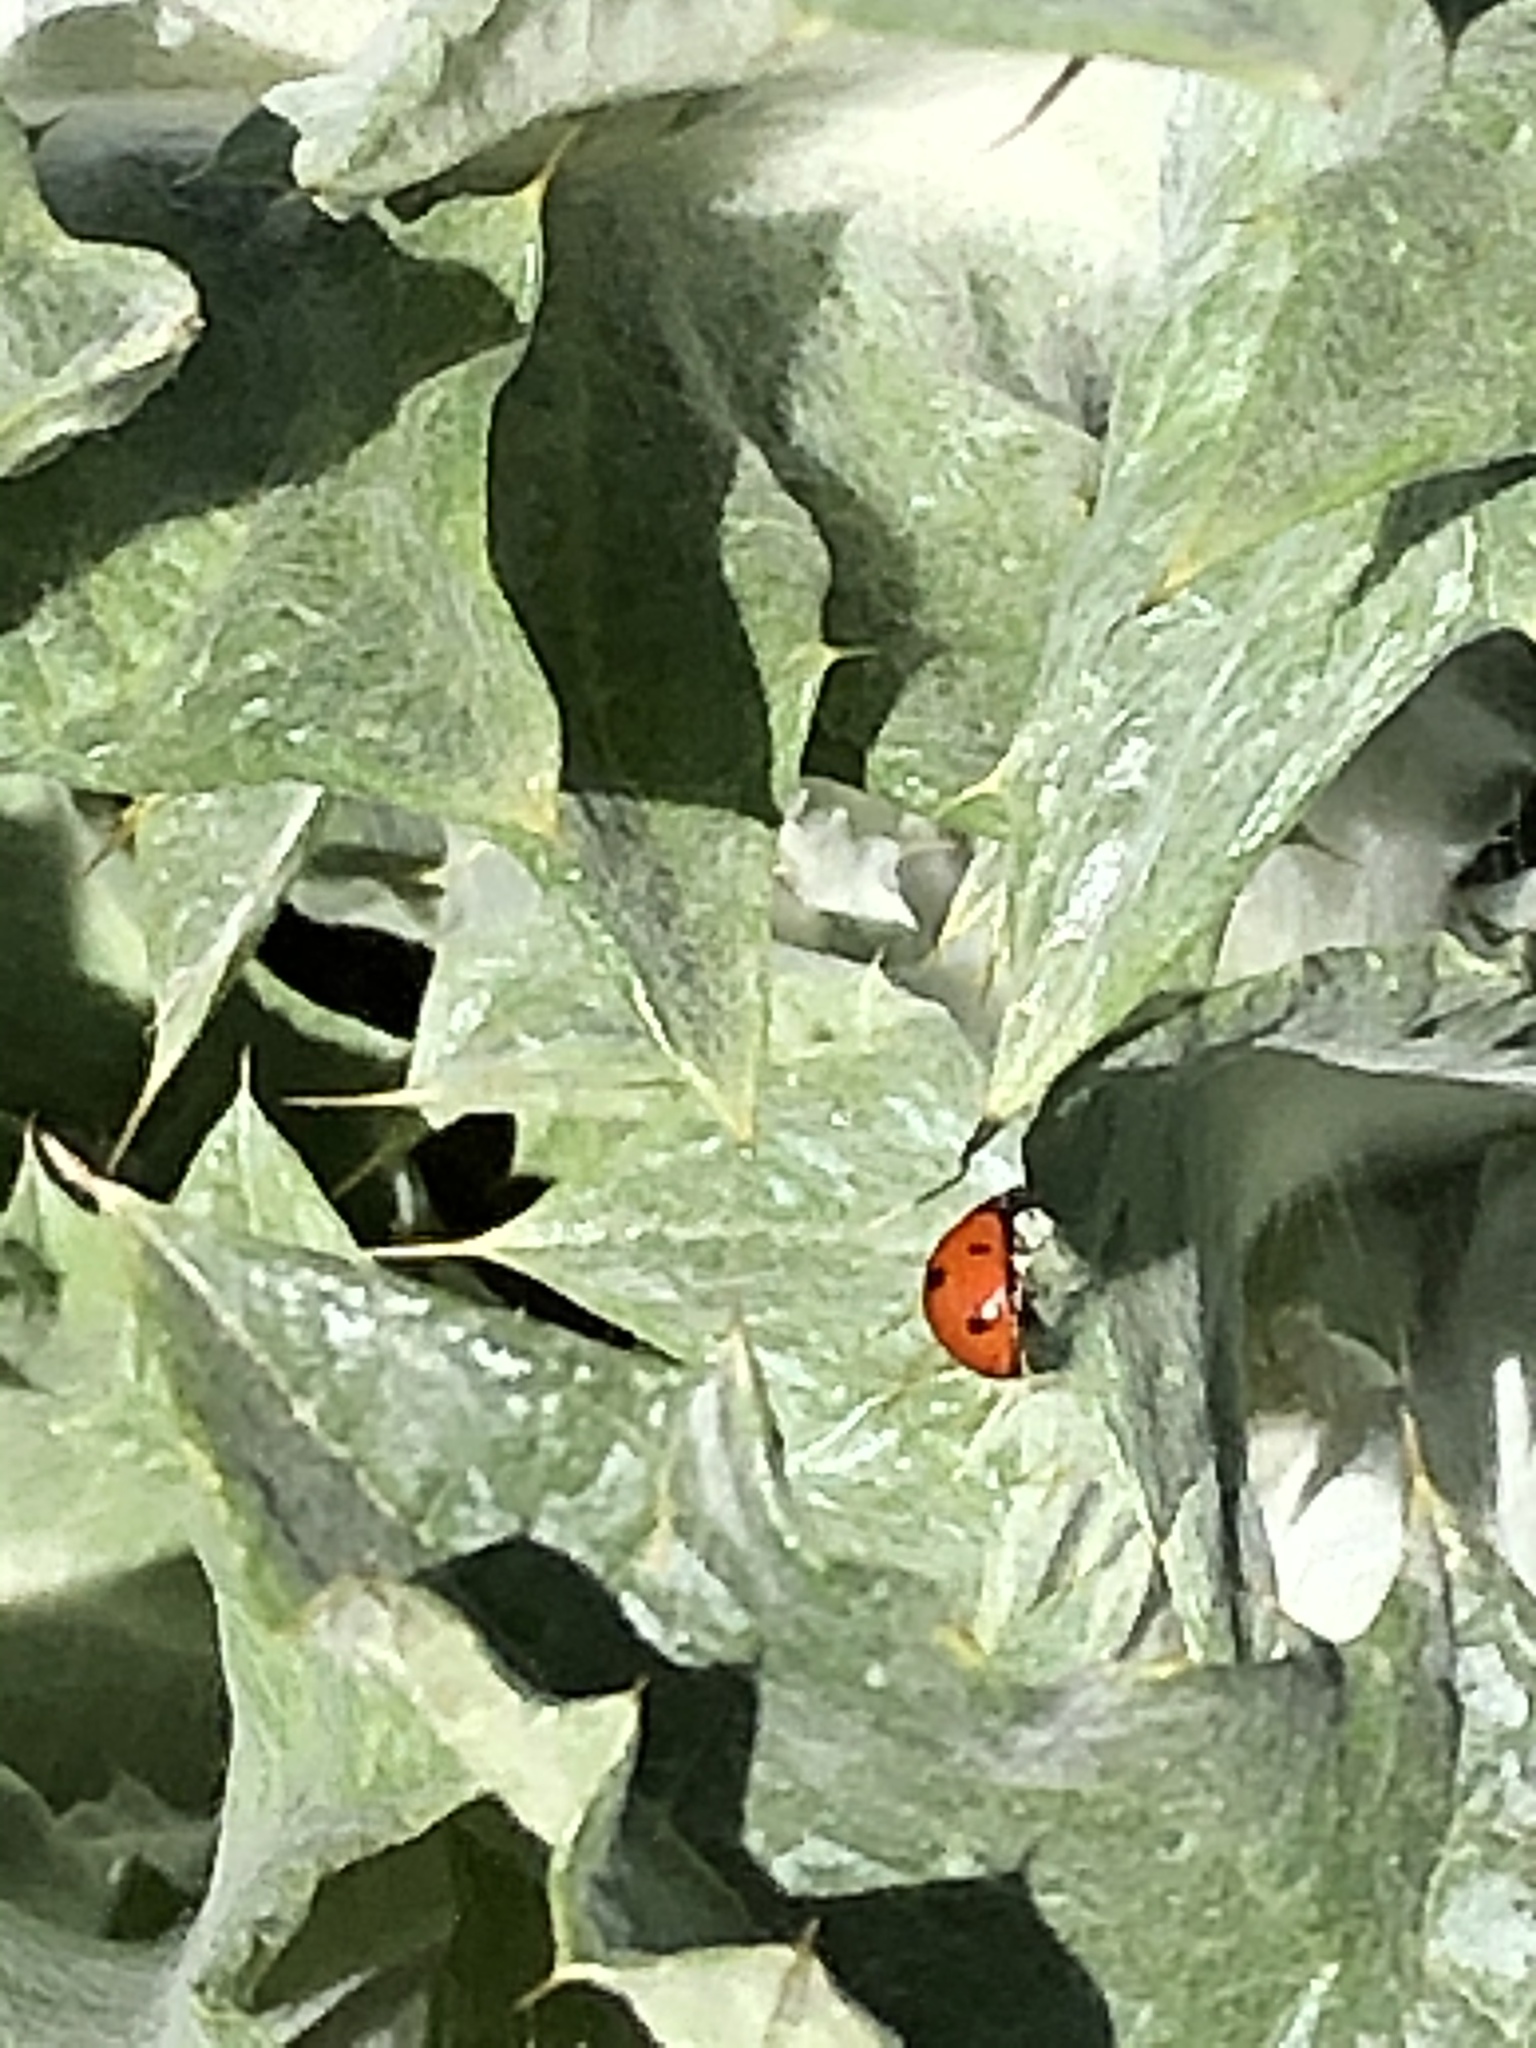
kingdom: Animalia
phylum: Arthropoda
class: Insecta
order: Coleoptera
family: Coccinellidae
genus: Coccinella
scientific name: Coccinella septempunctata
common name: Sevenspotted lady beetle
